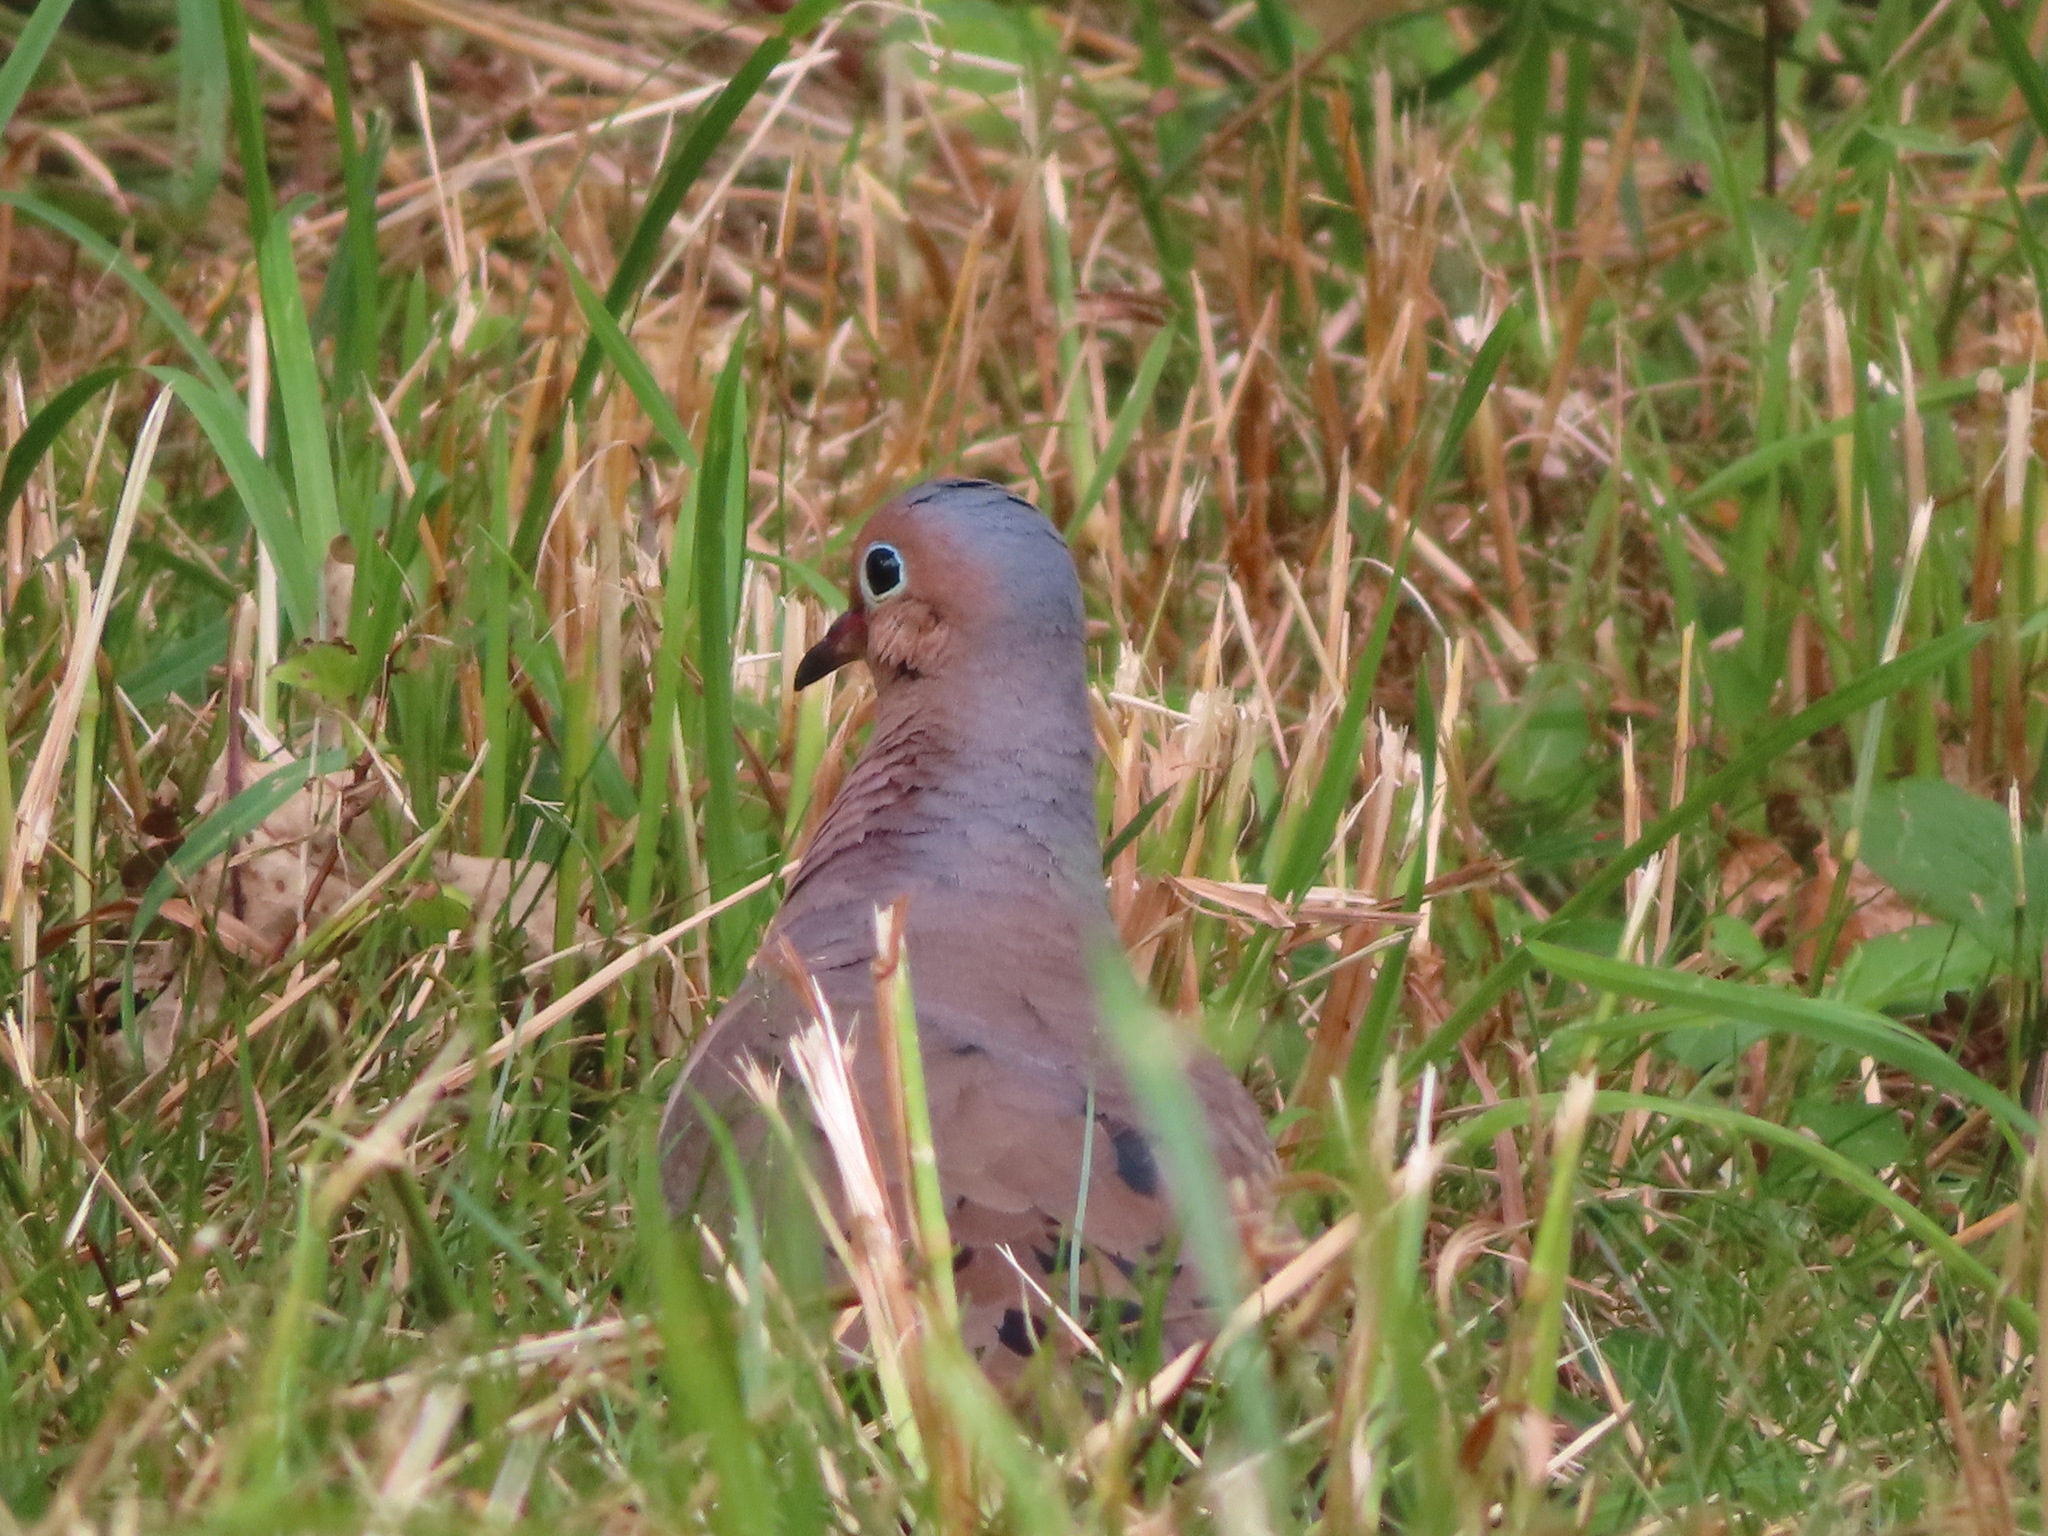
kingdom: Animalia
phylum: Chordata
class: Aves
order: Columbiformes
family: Columbidae
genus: Zenaida
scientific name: Zenaida macroura
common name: Mourning dove
